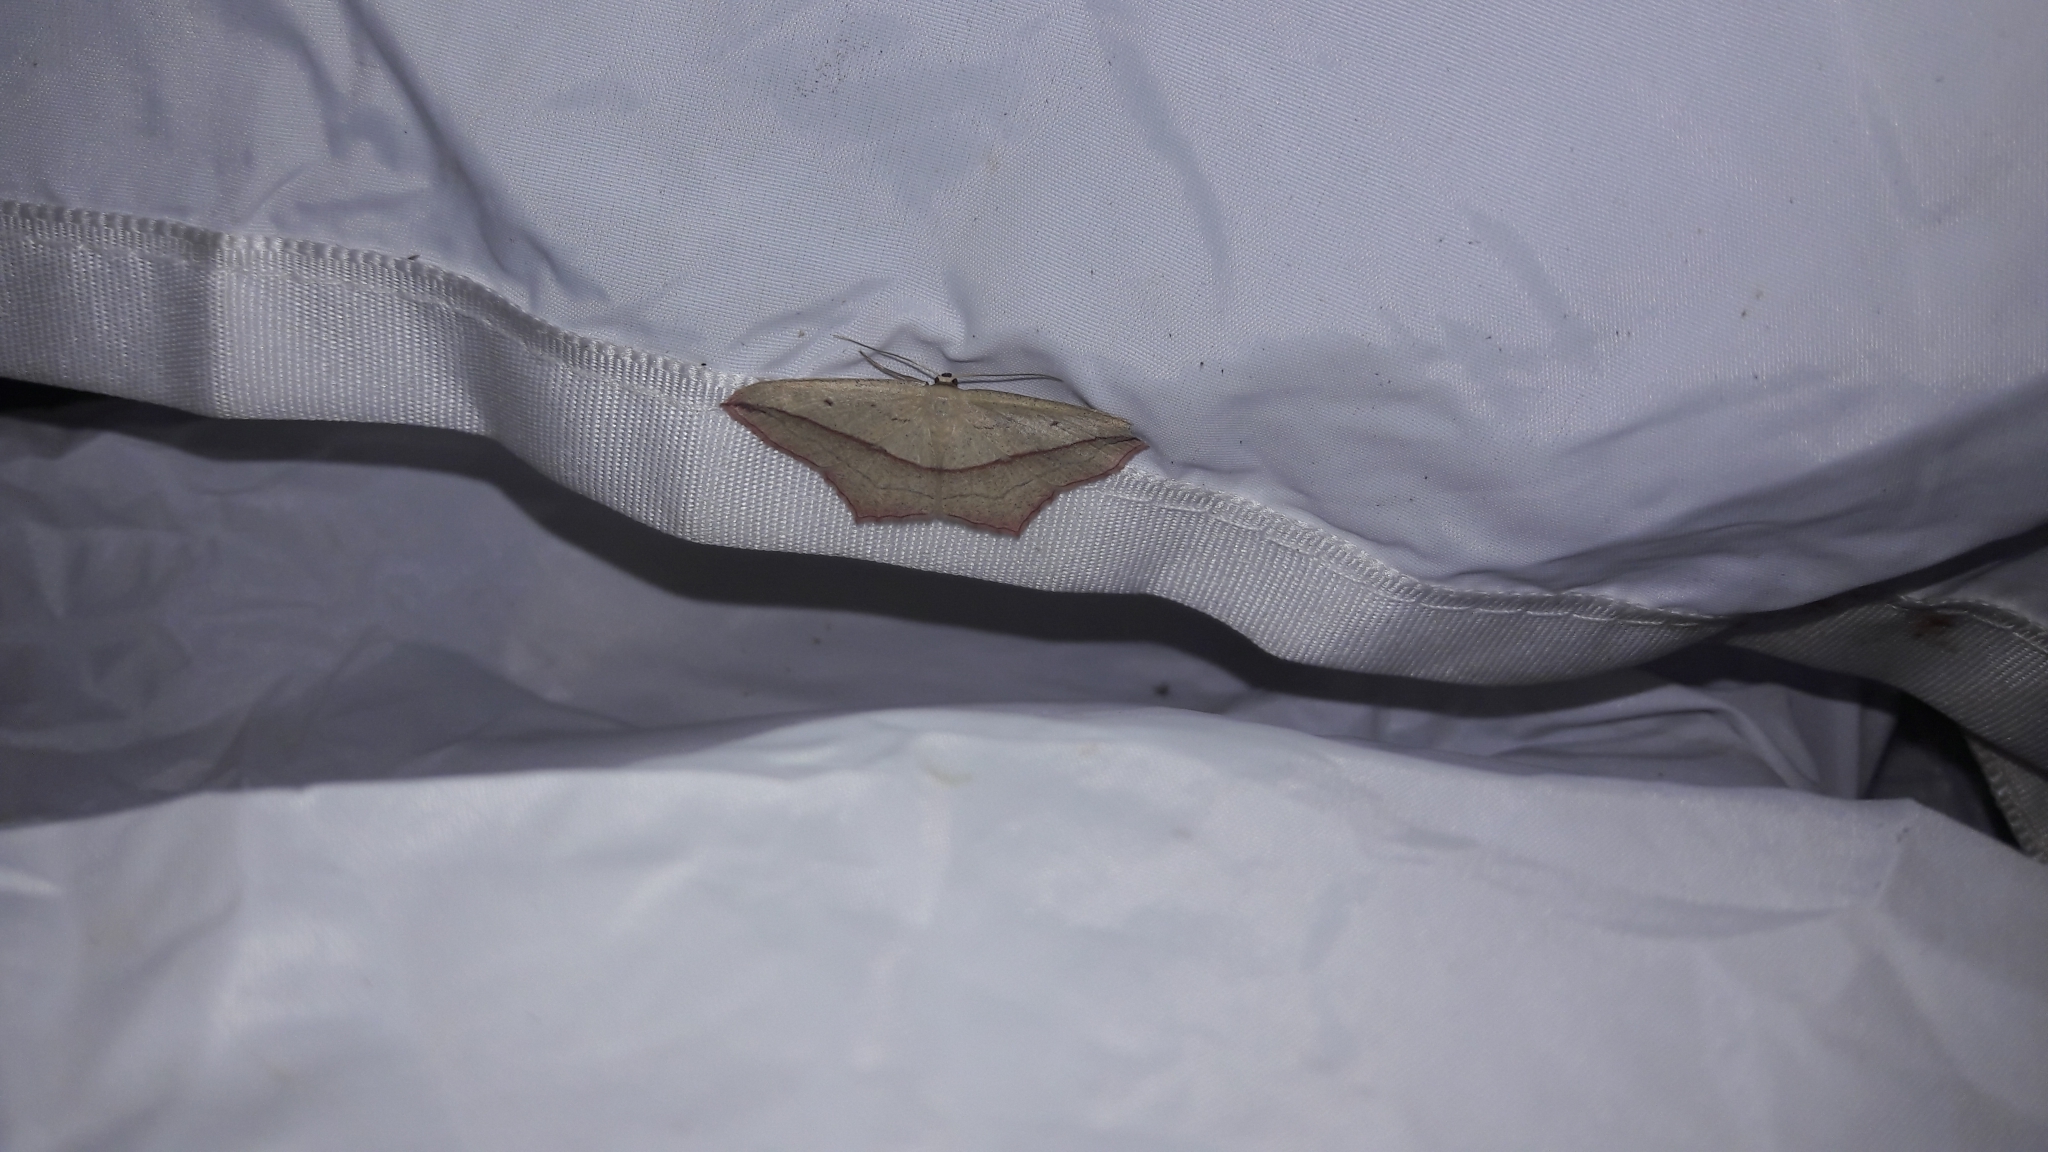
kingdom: Animalia
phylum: Arthropoda
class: Insecta
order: Lepidoptera
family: Geometridae
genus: Timandra
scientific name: Timandra comae
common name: Blood-vein
